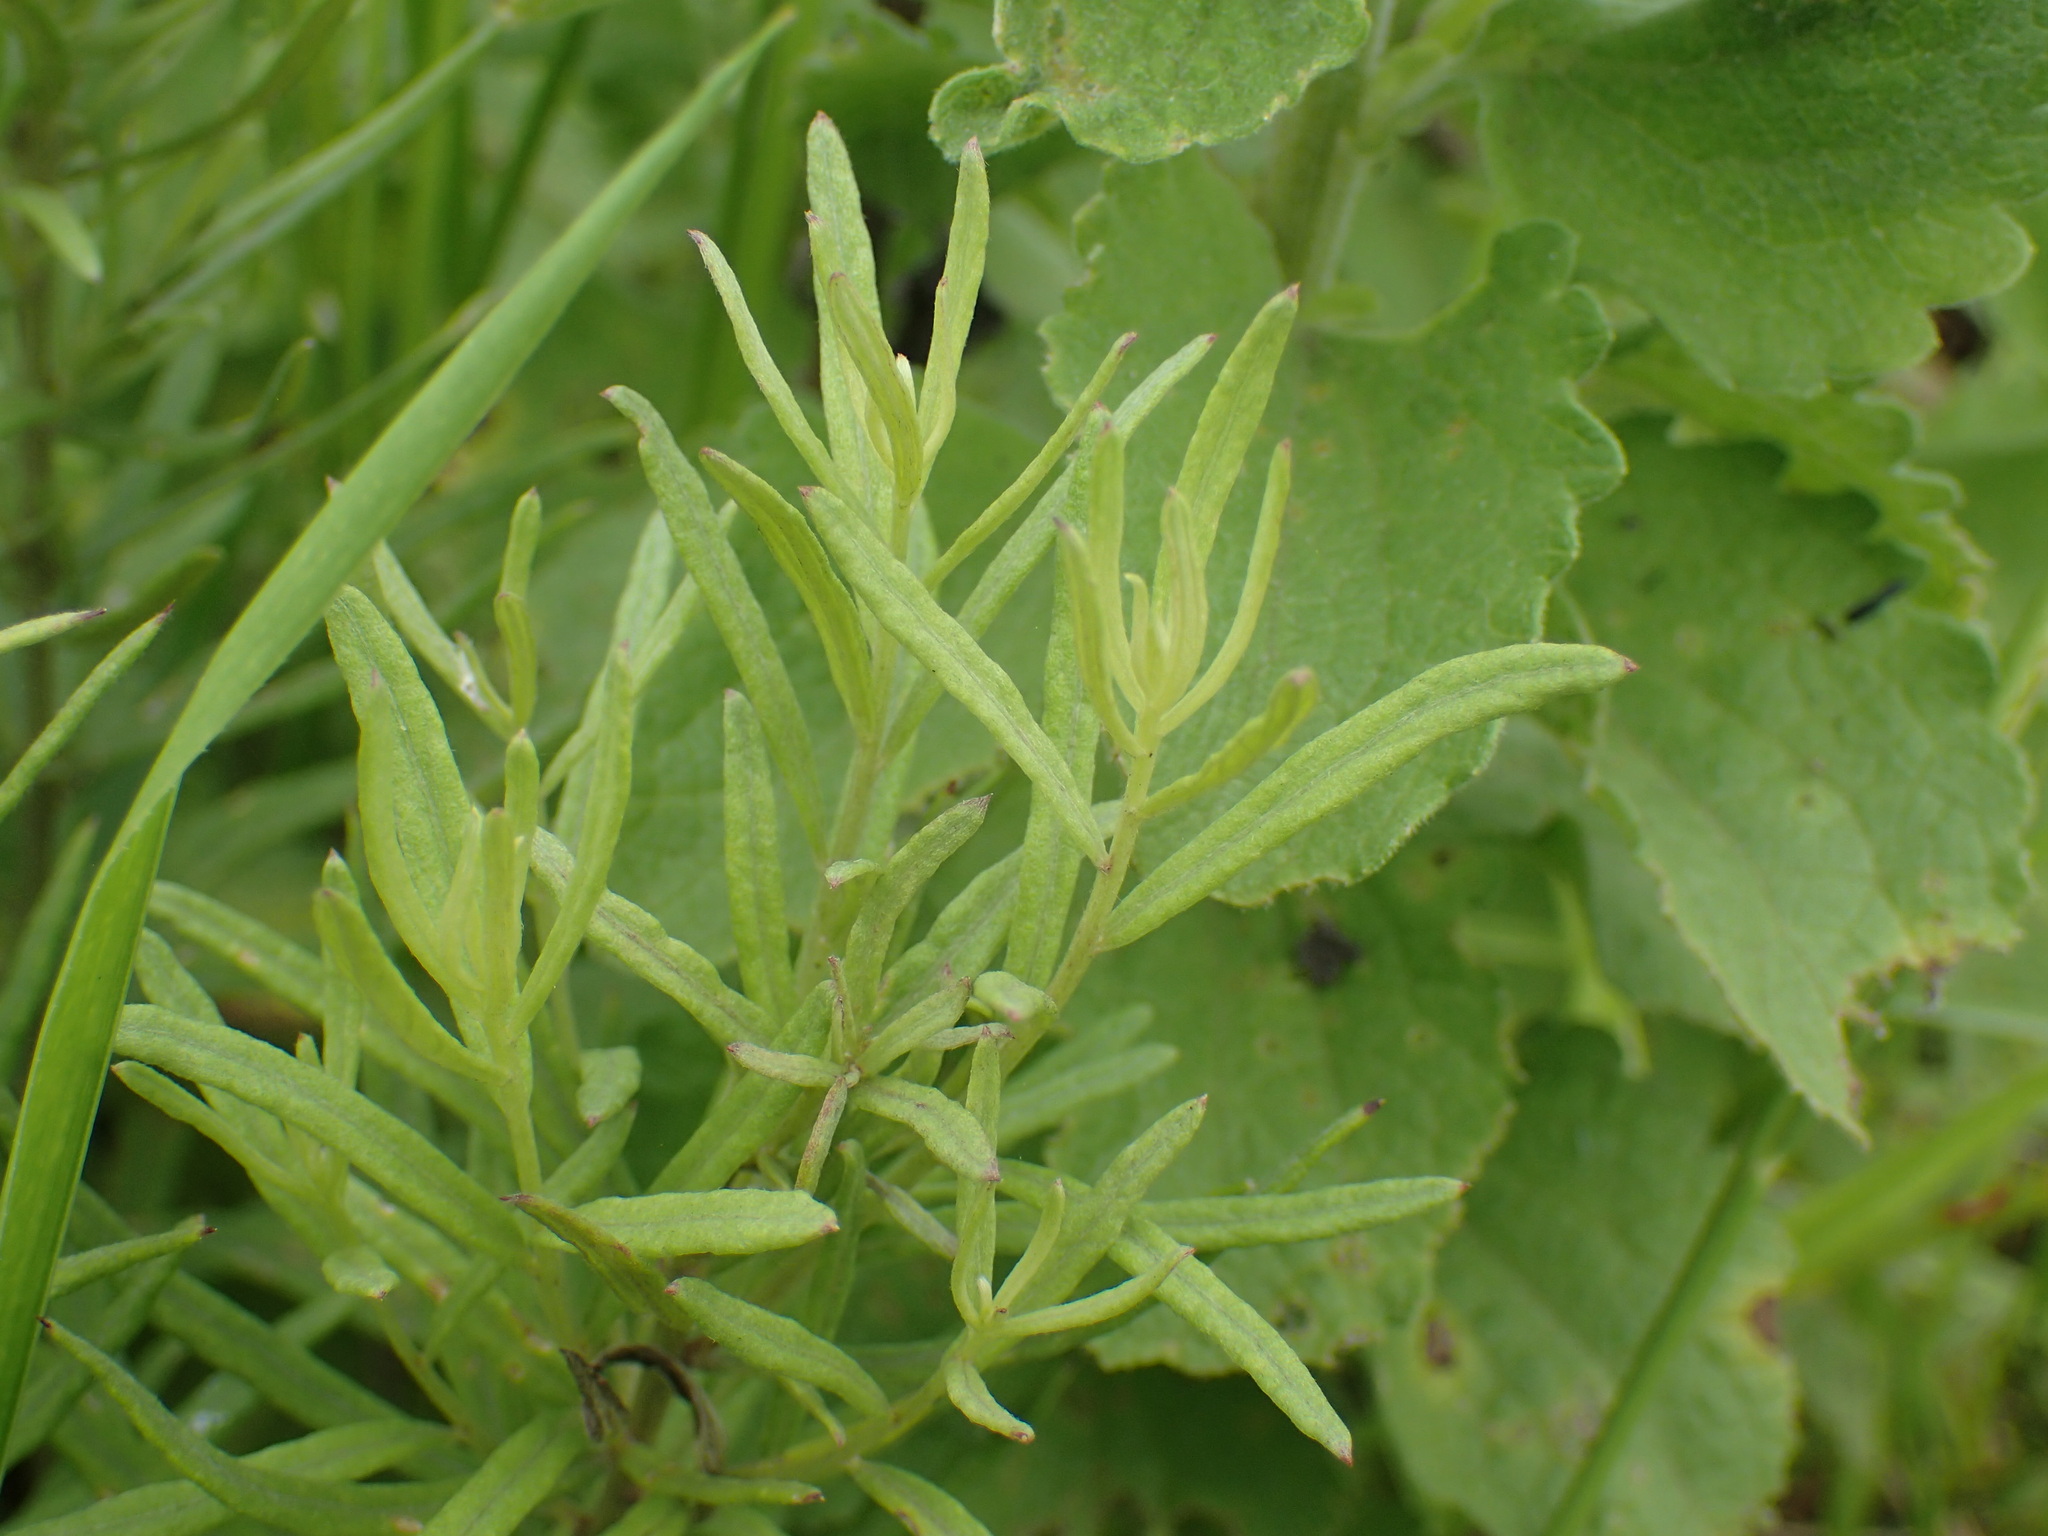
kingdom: Plantae
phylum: Tracheophyta
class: Magnoliopsida
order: Asterales
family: Asteraceae
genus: Hilliardiella
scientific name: Hilliardiella capensis
